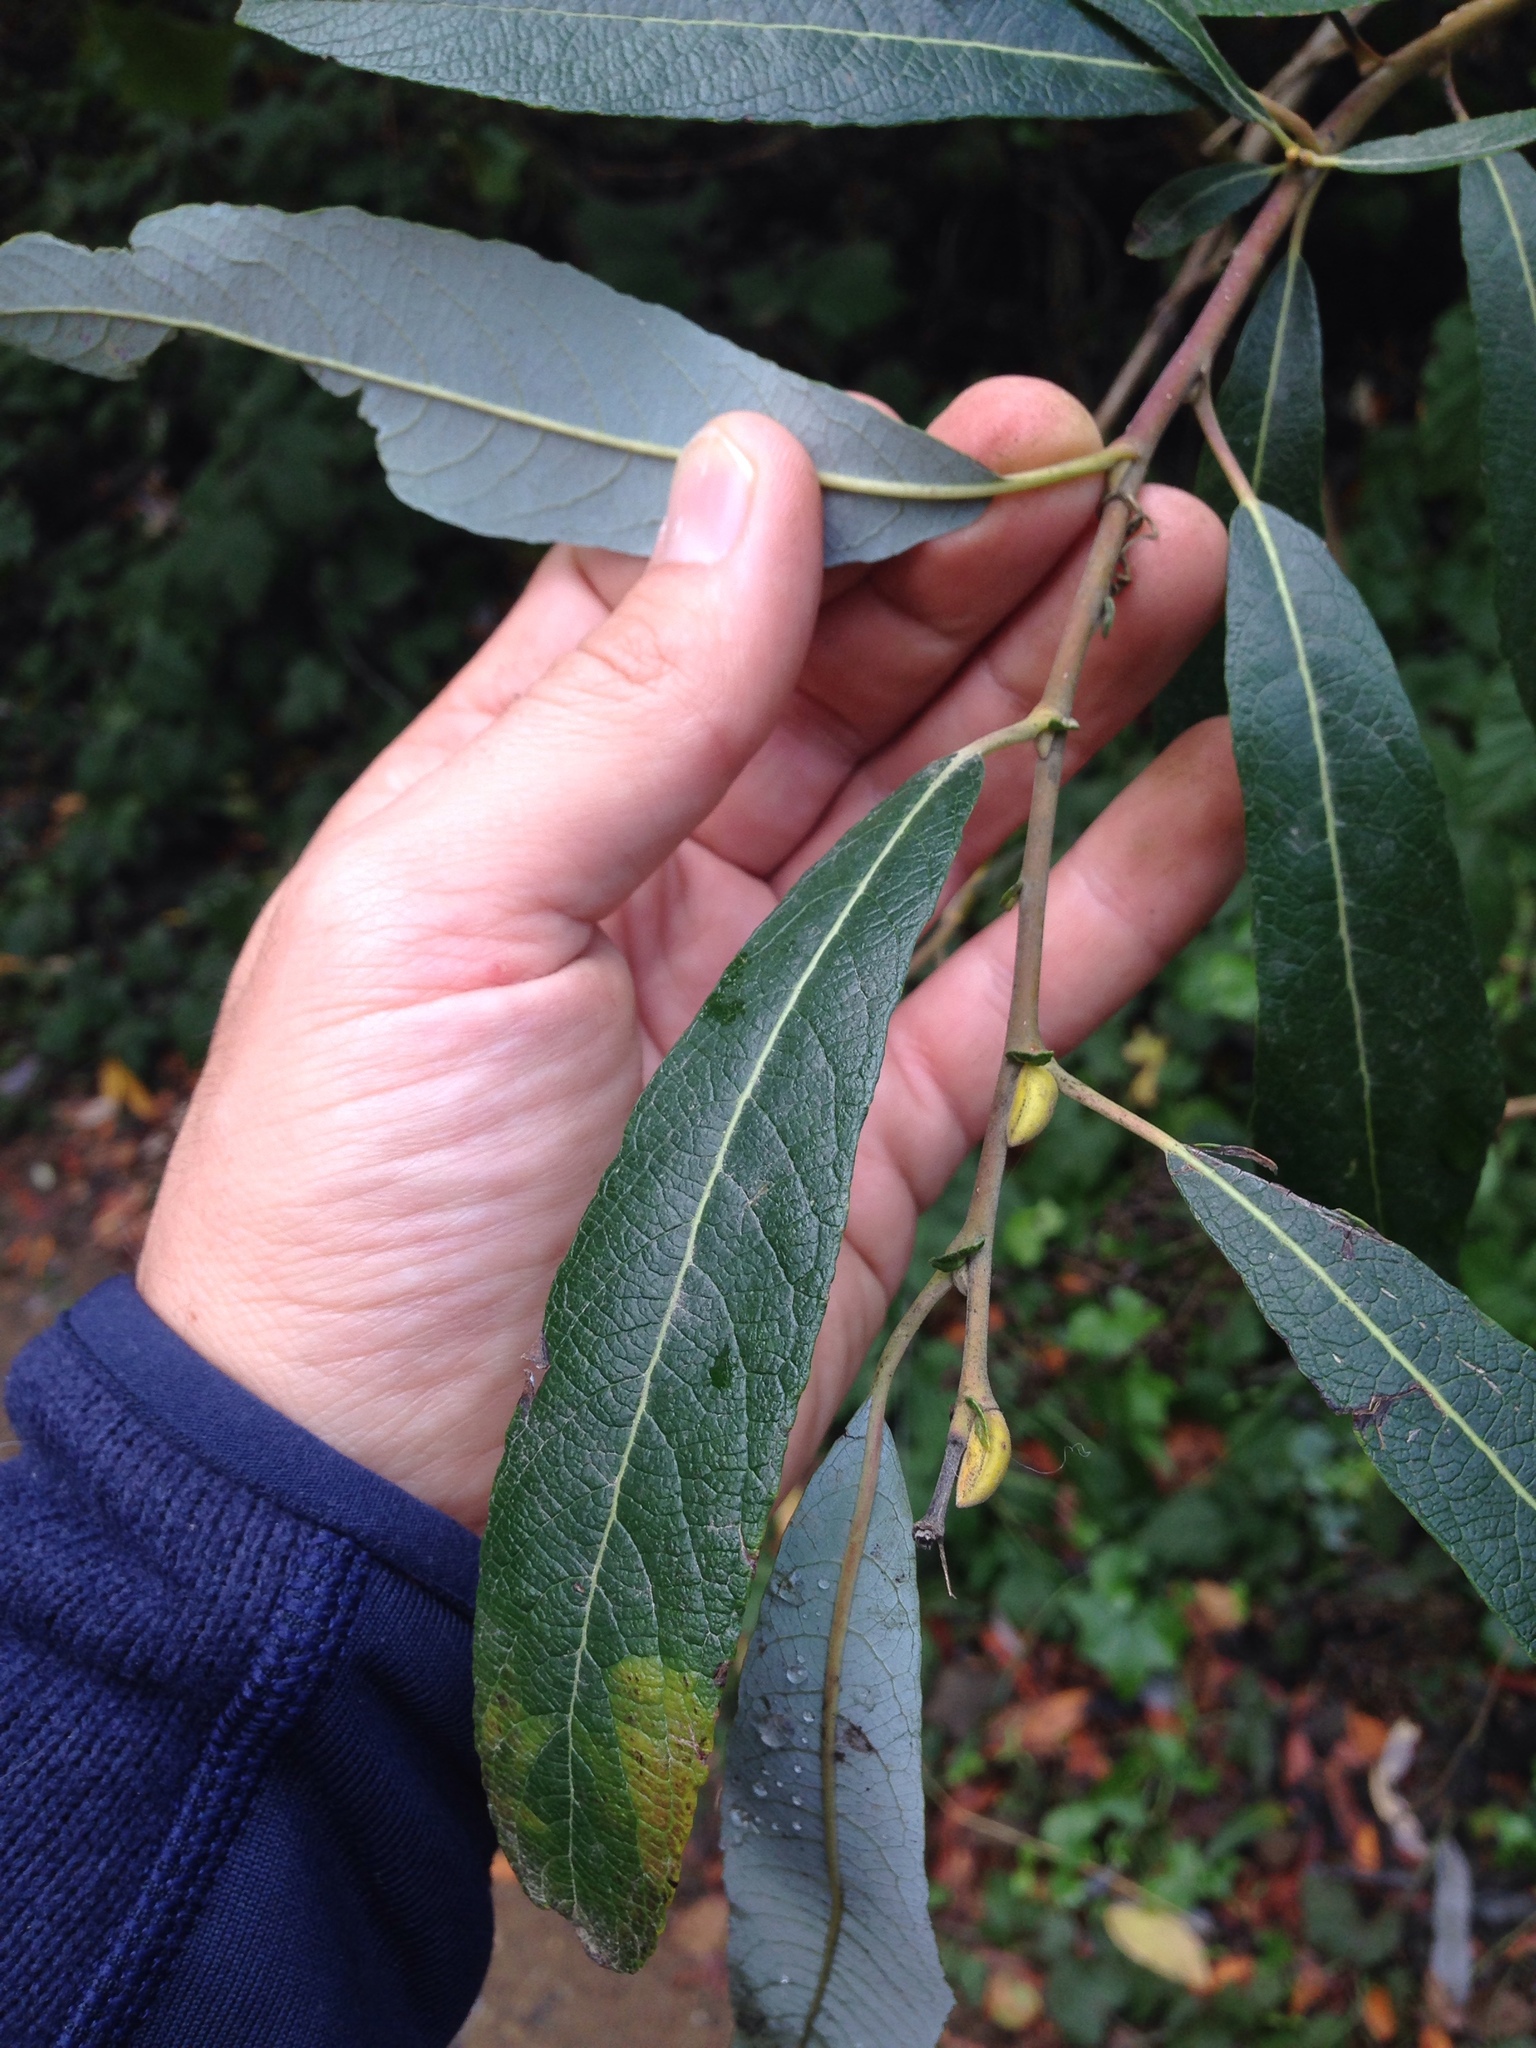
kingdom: Plantae
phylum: Tracheophyta
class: Magnoliopsida
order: Malpighiales
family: Salicaceae
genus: Salix
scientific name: Salix lasiolepis
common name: Arroyo willow
